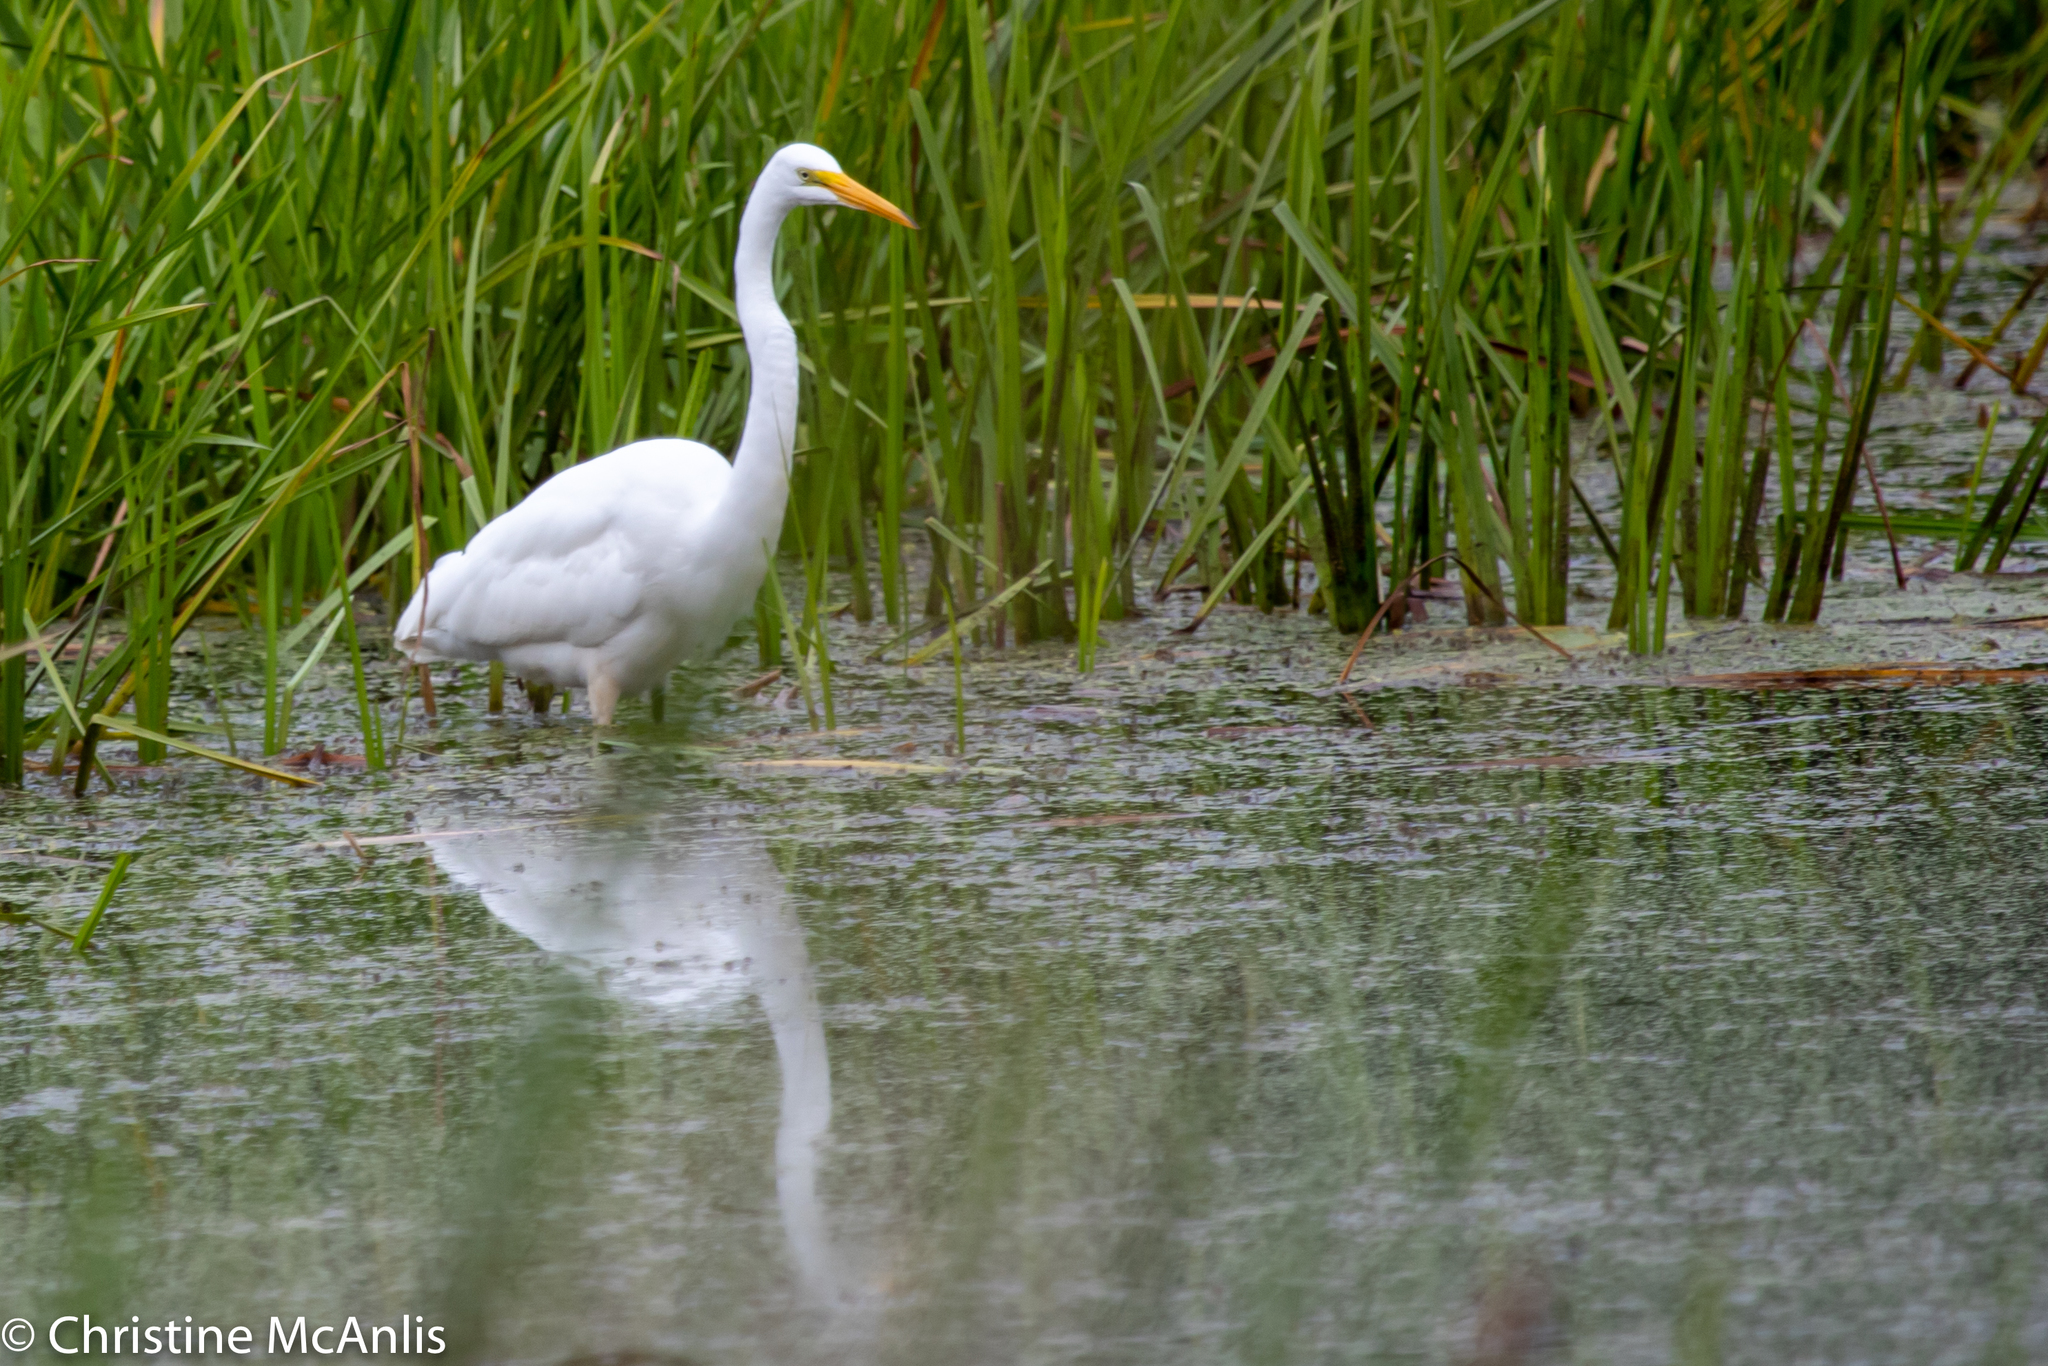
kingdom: Animalia
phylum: Chordata
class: Aves
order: Pelecaniformes
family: Ardeidae
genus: Ardea
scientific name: Ardea alba
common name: Great egret
